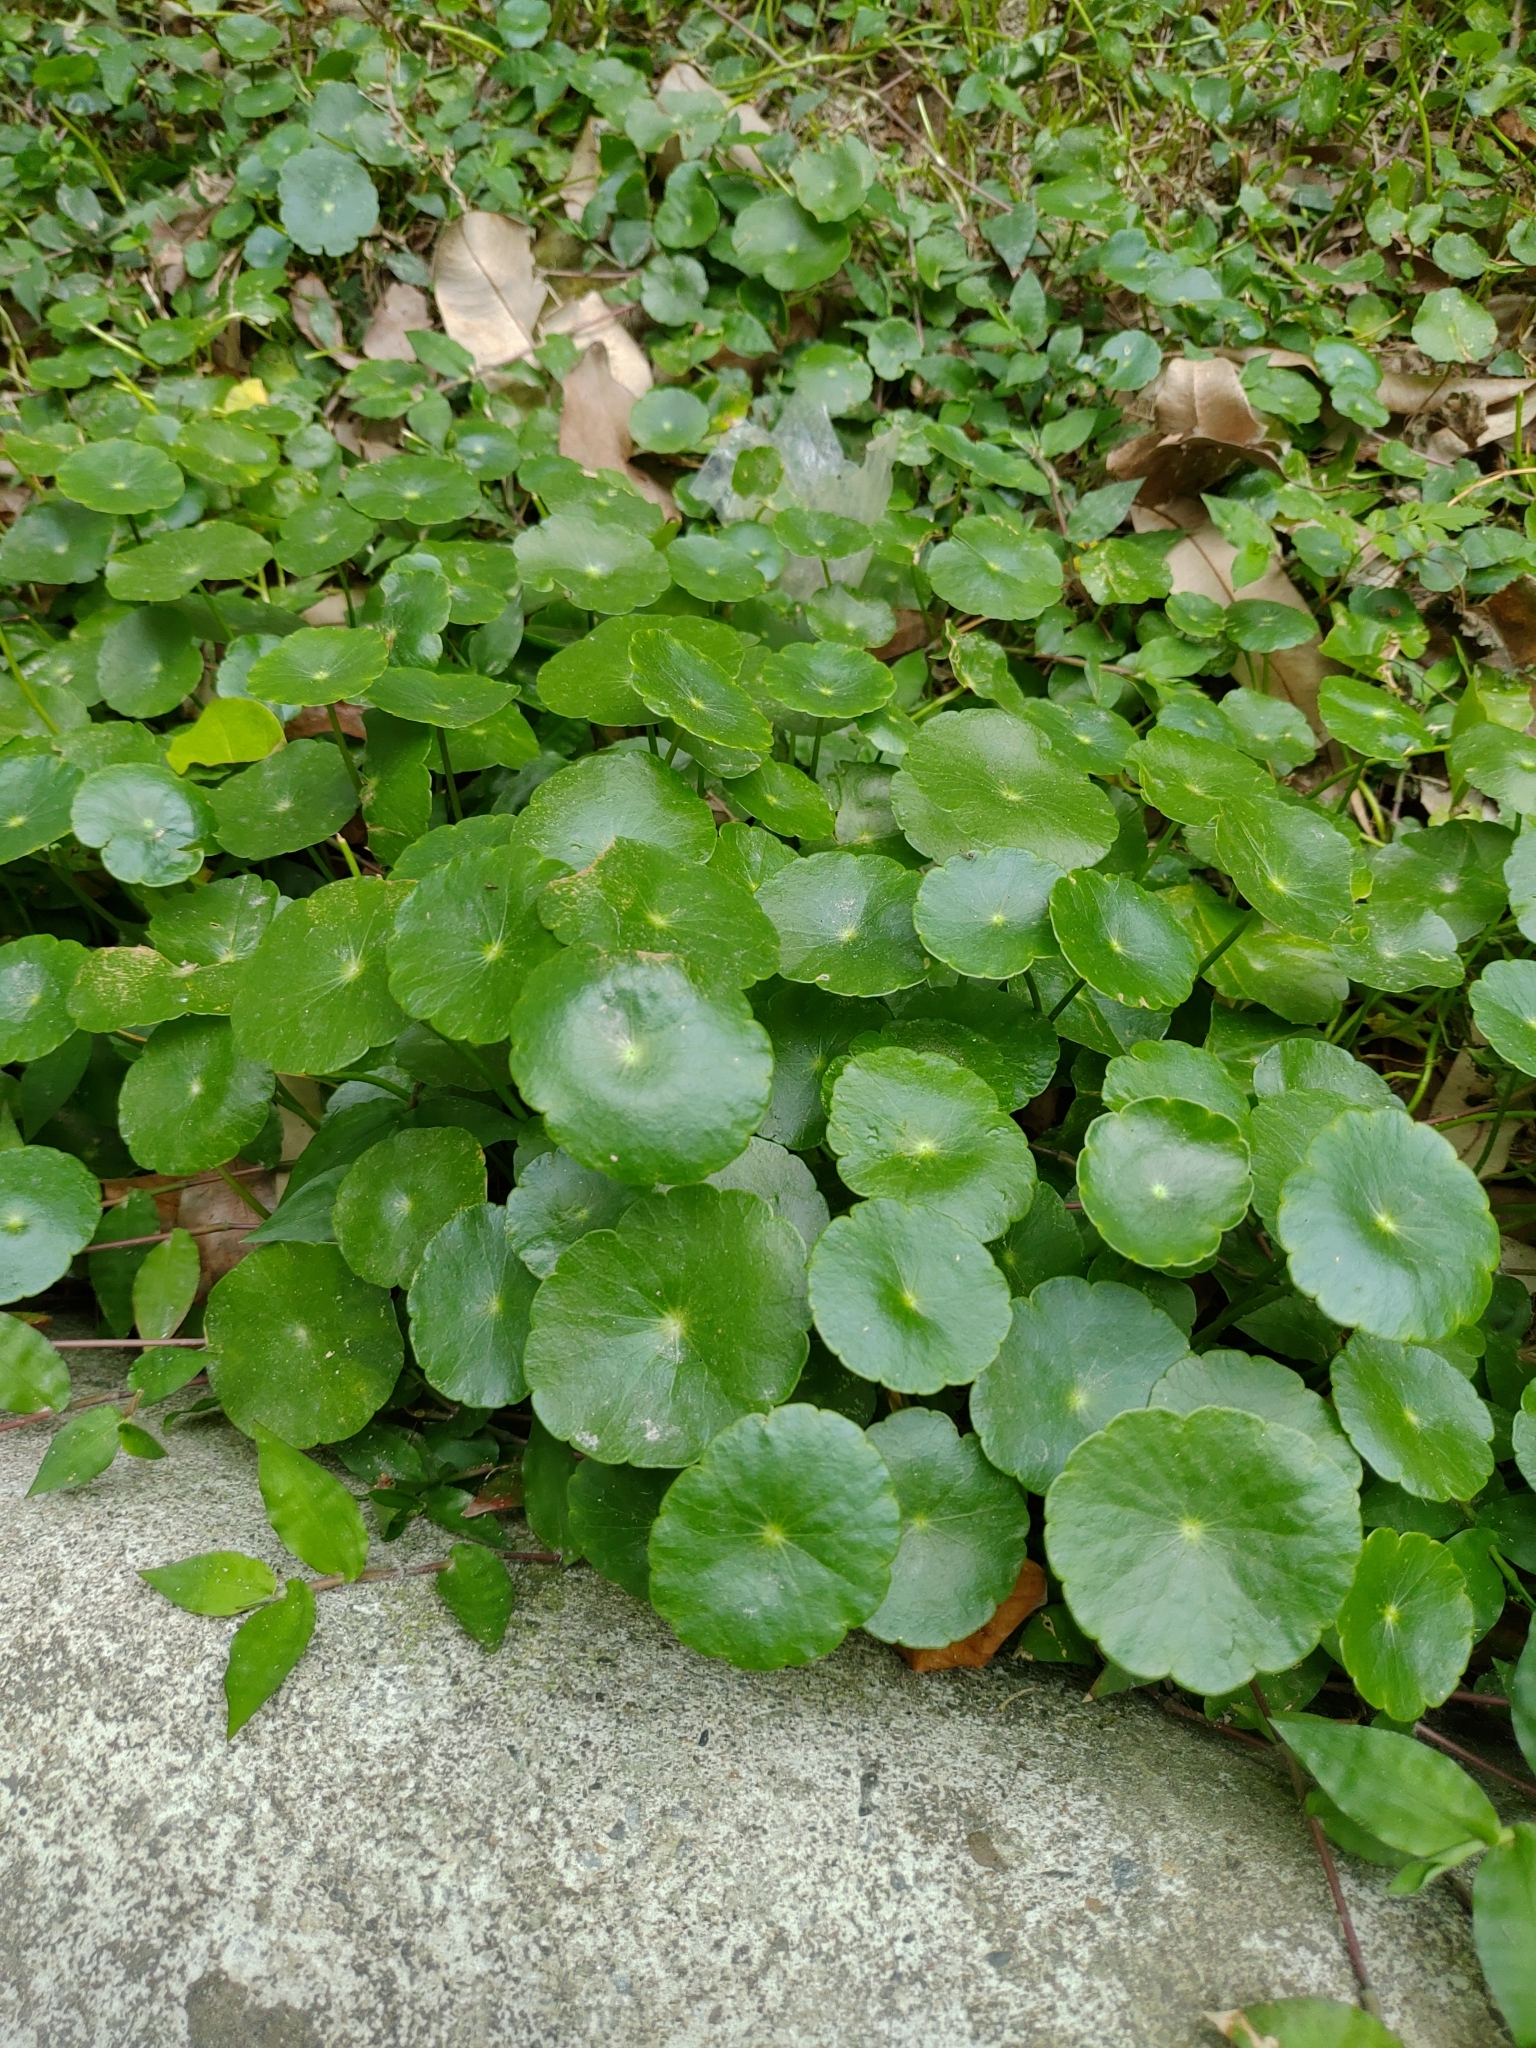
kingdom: Plantae
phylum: Tracheophyta
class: Magnoliopsida
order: Apiales
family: Araliaceae
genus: Hydrocotyle
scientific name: Hydrocotyle verticillata
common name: Whorled marshpennywort
